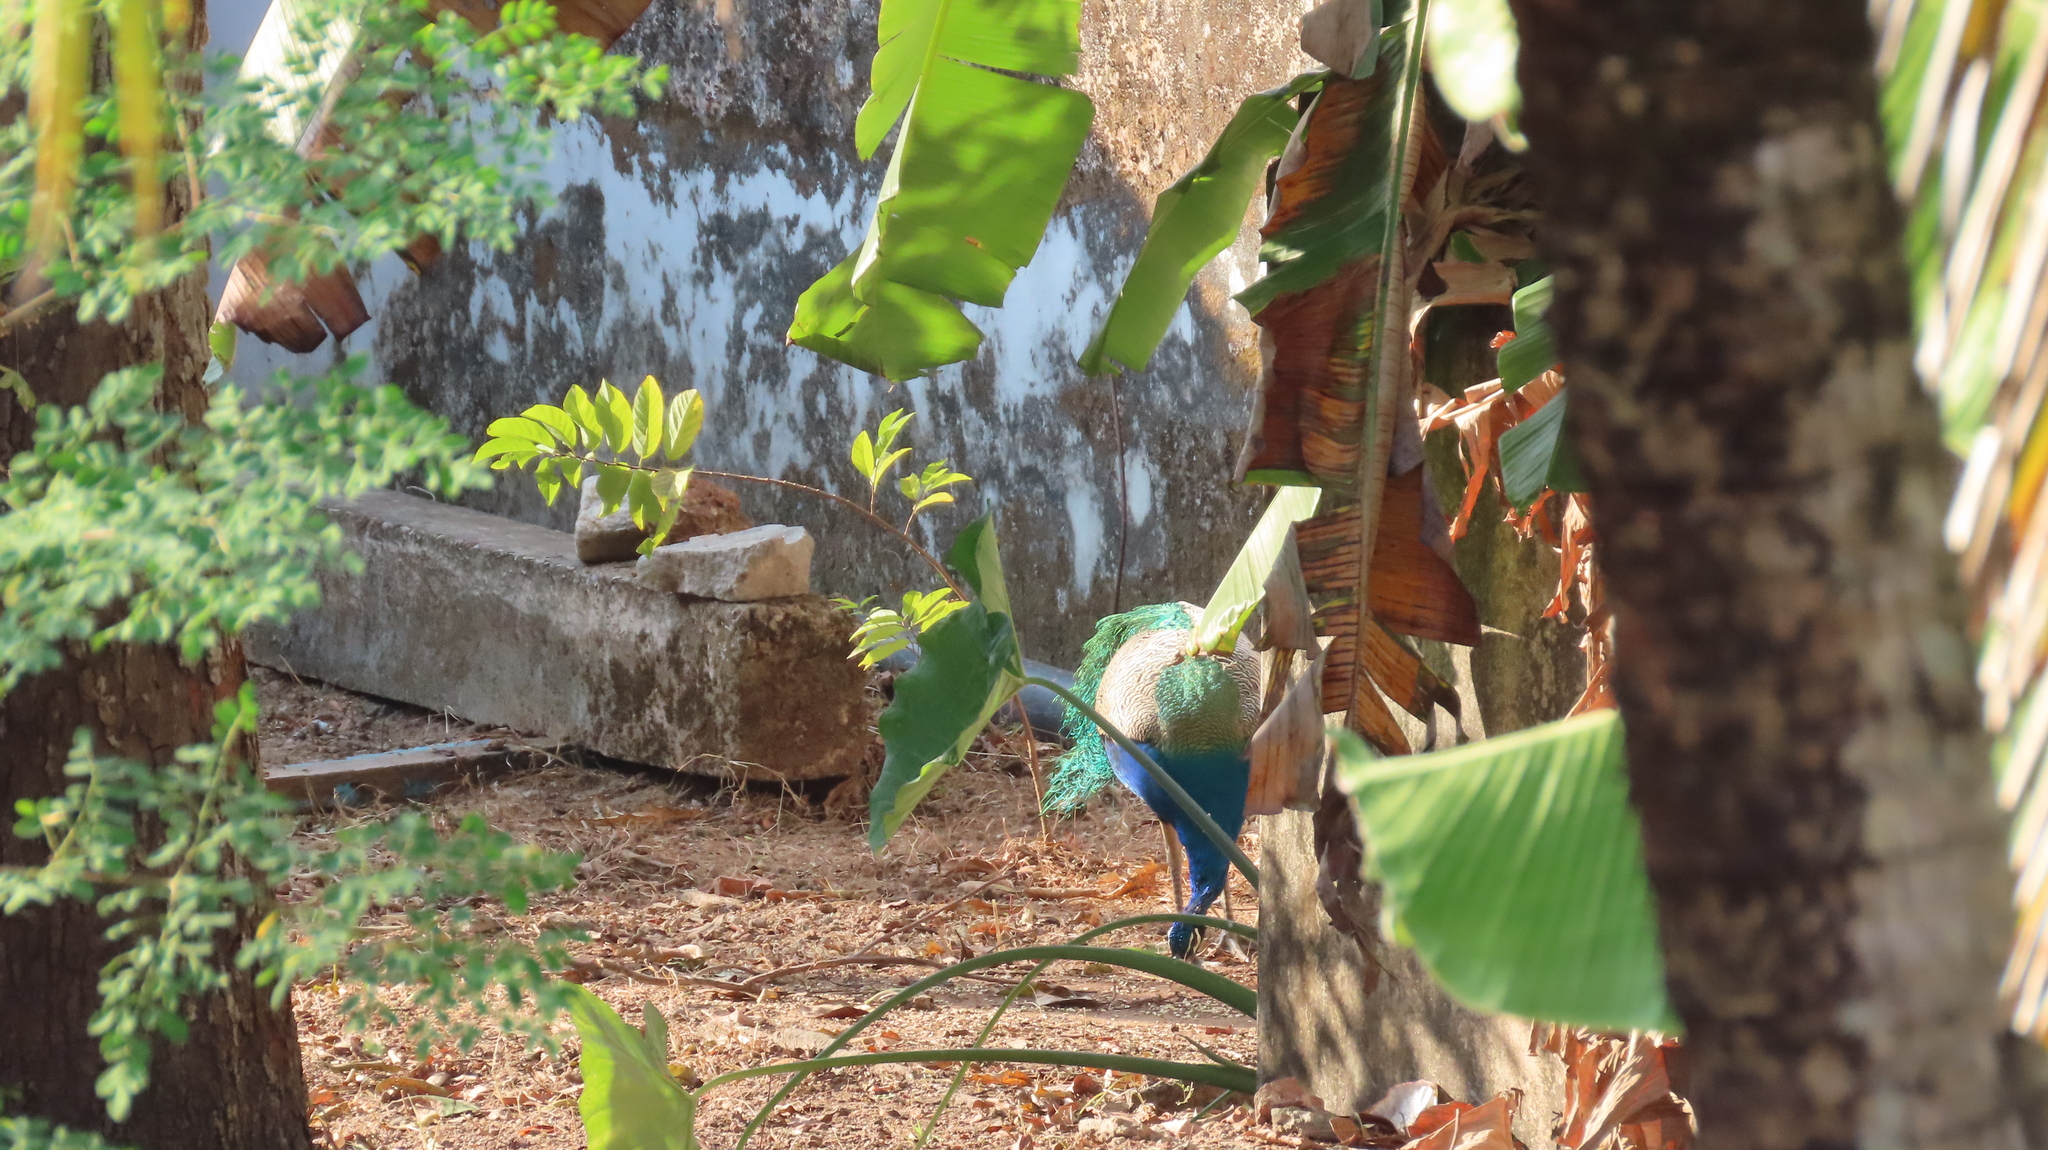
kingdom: Animalia
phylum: Chordata
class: Aves
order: Galliformes
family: Phasianidae
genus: Pavo
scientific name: Pavo cristatus
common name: Indian peafowl
